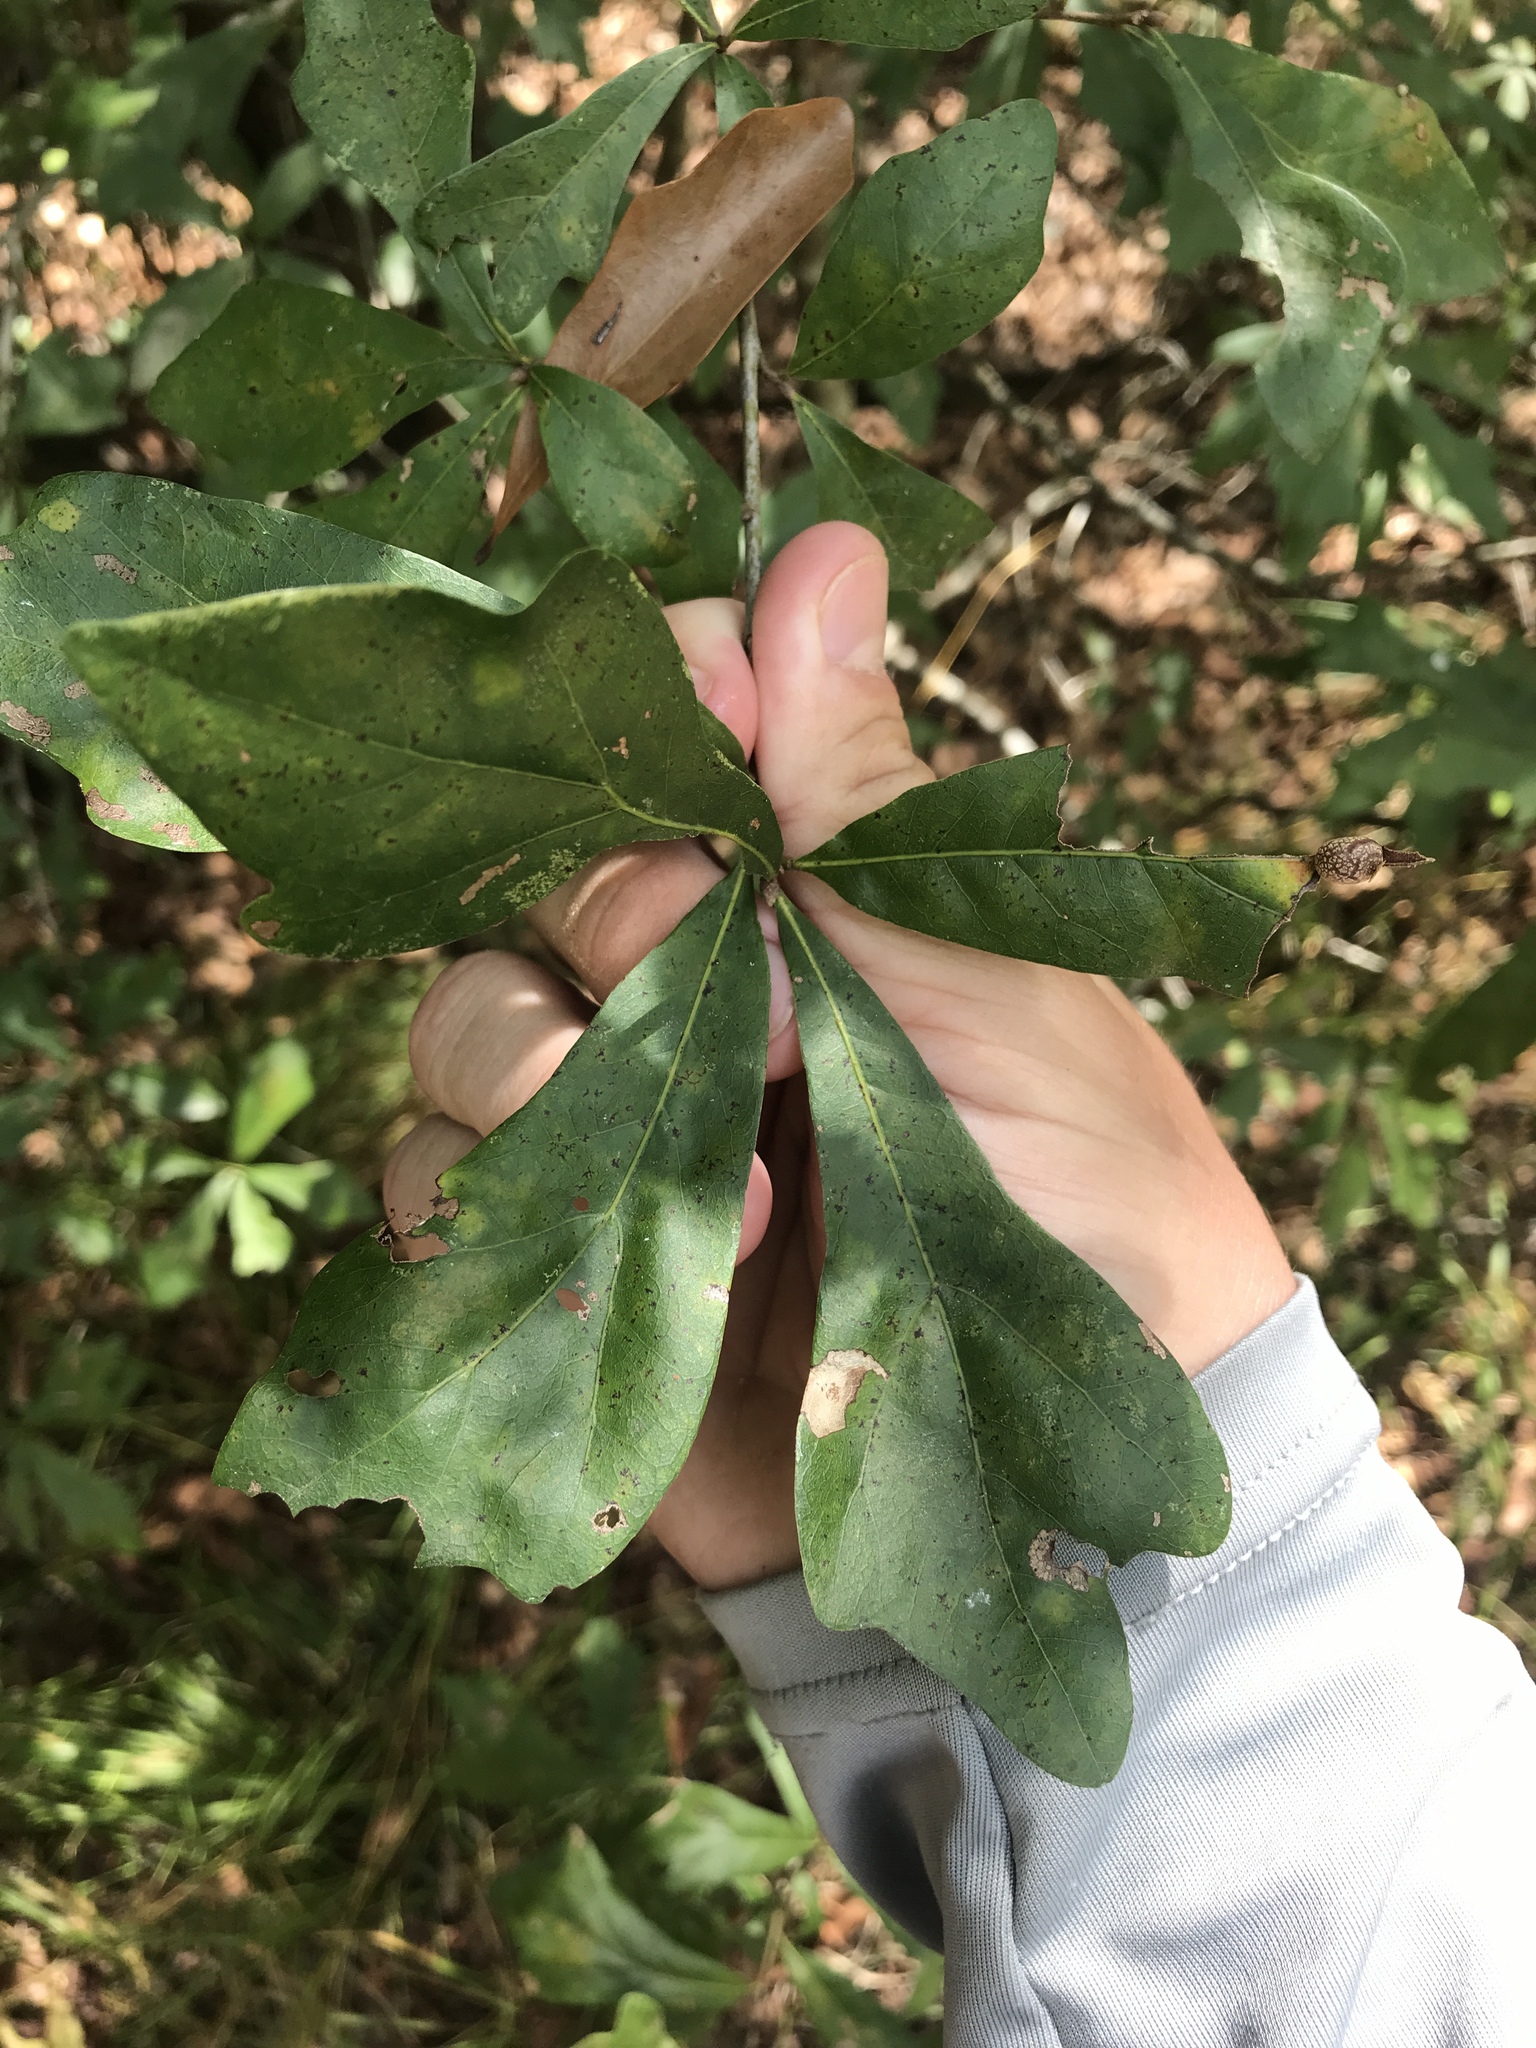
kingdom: Plantae
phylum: Tracheophyta
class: Magnoliopsida
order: Fagales
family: Fagaceae
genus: Quercus
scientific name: Quercus nigra
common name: Water oak
